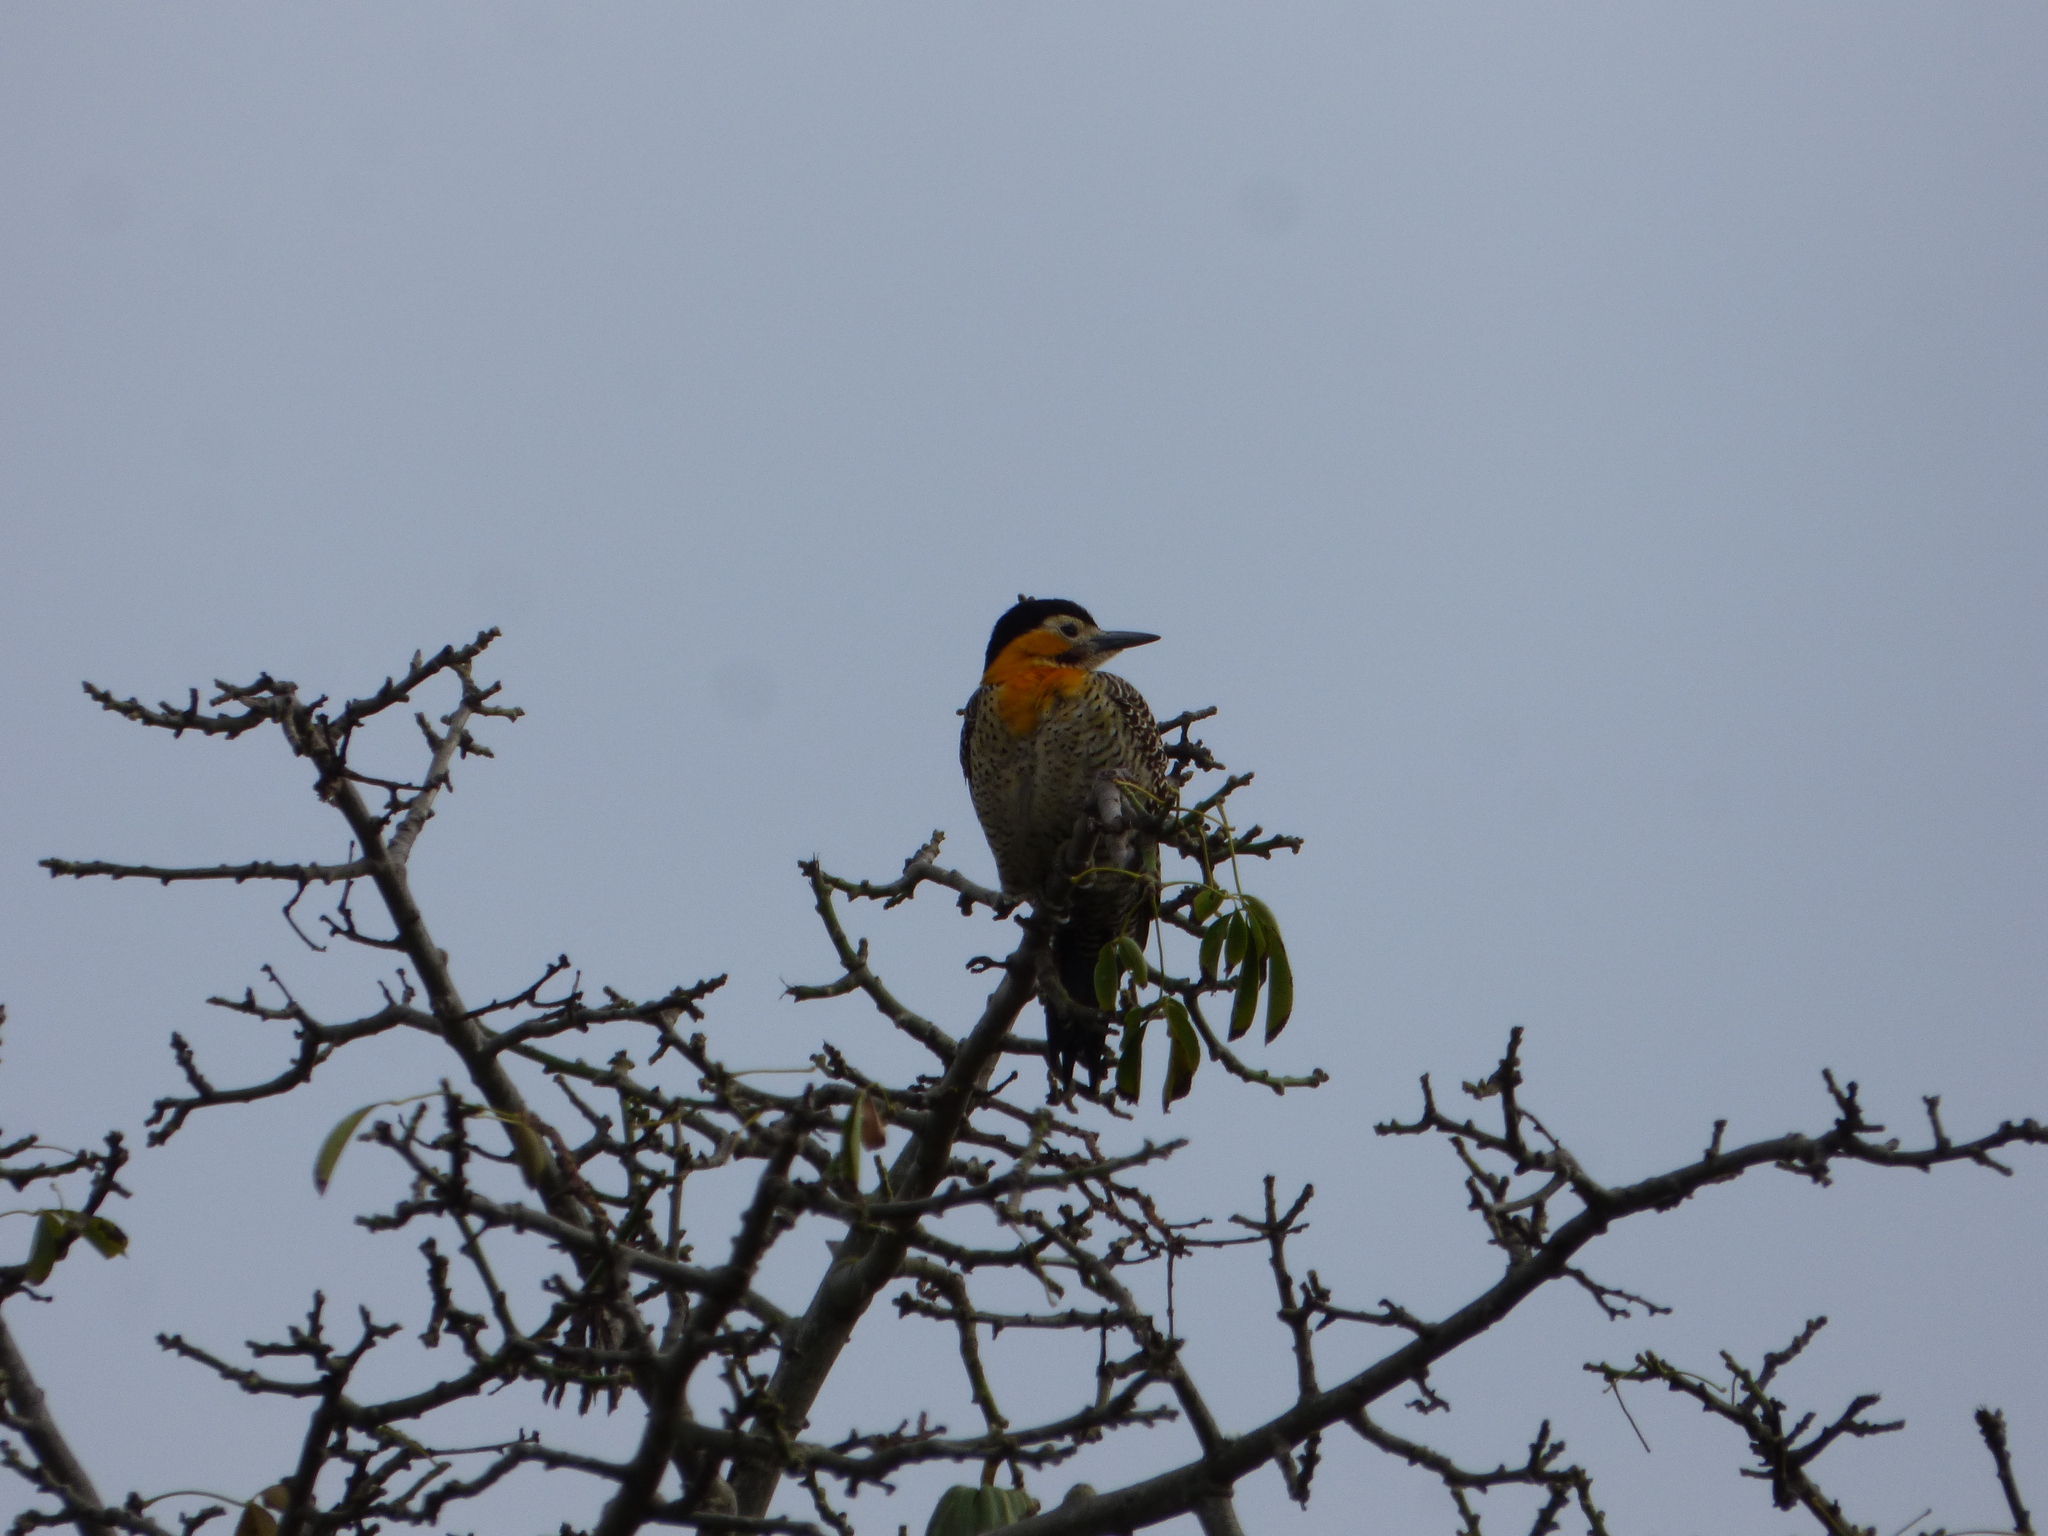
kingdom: Animalia
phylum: Chordata
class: Aves
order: Piciformes
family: Picidae
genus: Colaptes
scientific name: Colaptes campestris
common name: Campo flicker
